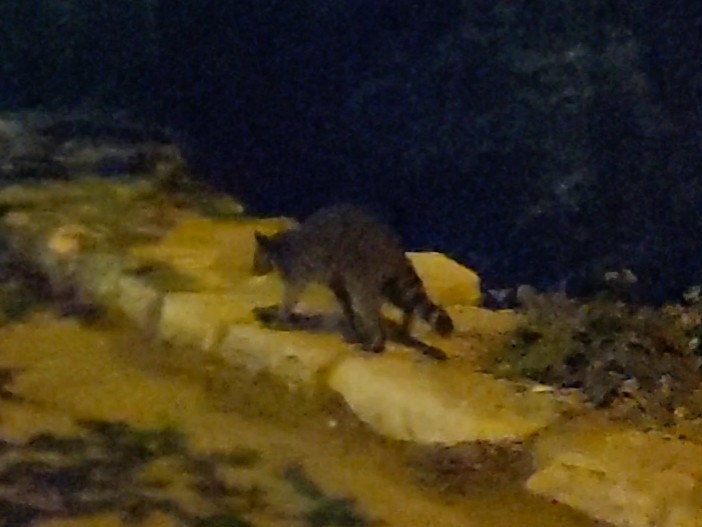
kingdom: Animalia
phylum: Chordata
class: Mammalia
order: Carnivora
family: Procyonidae
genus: Procyon
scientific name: Procyon lotor
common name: Raccoon
